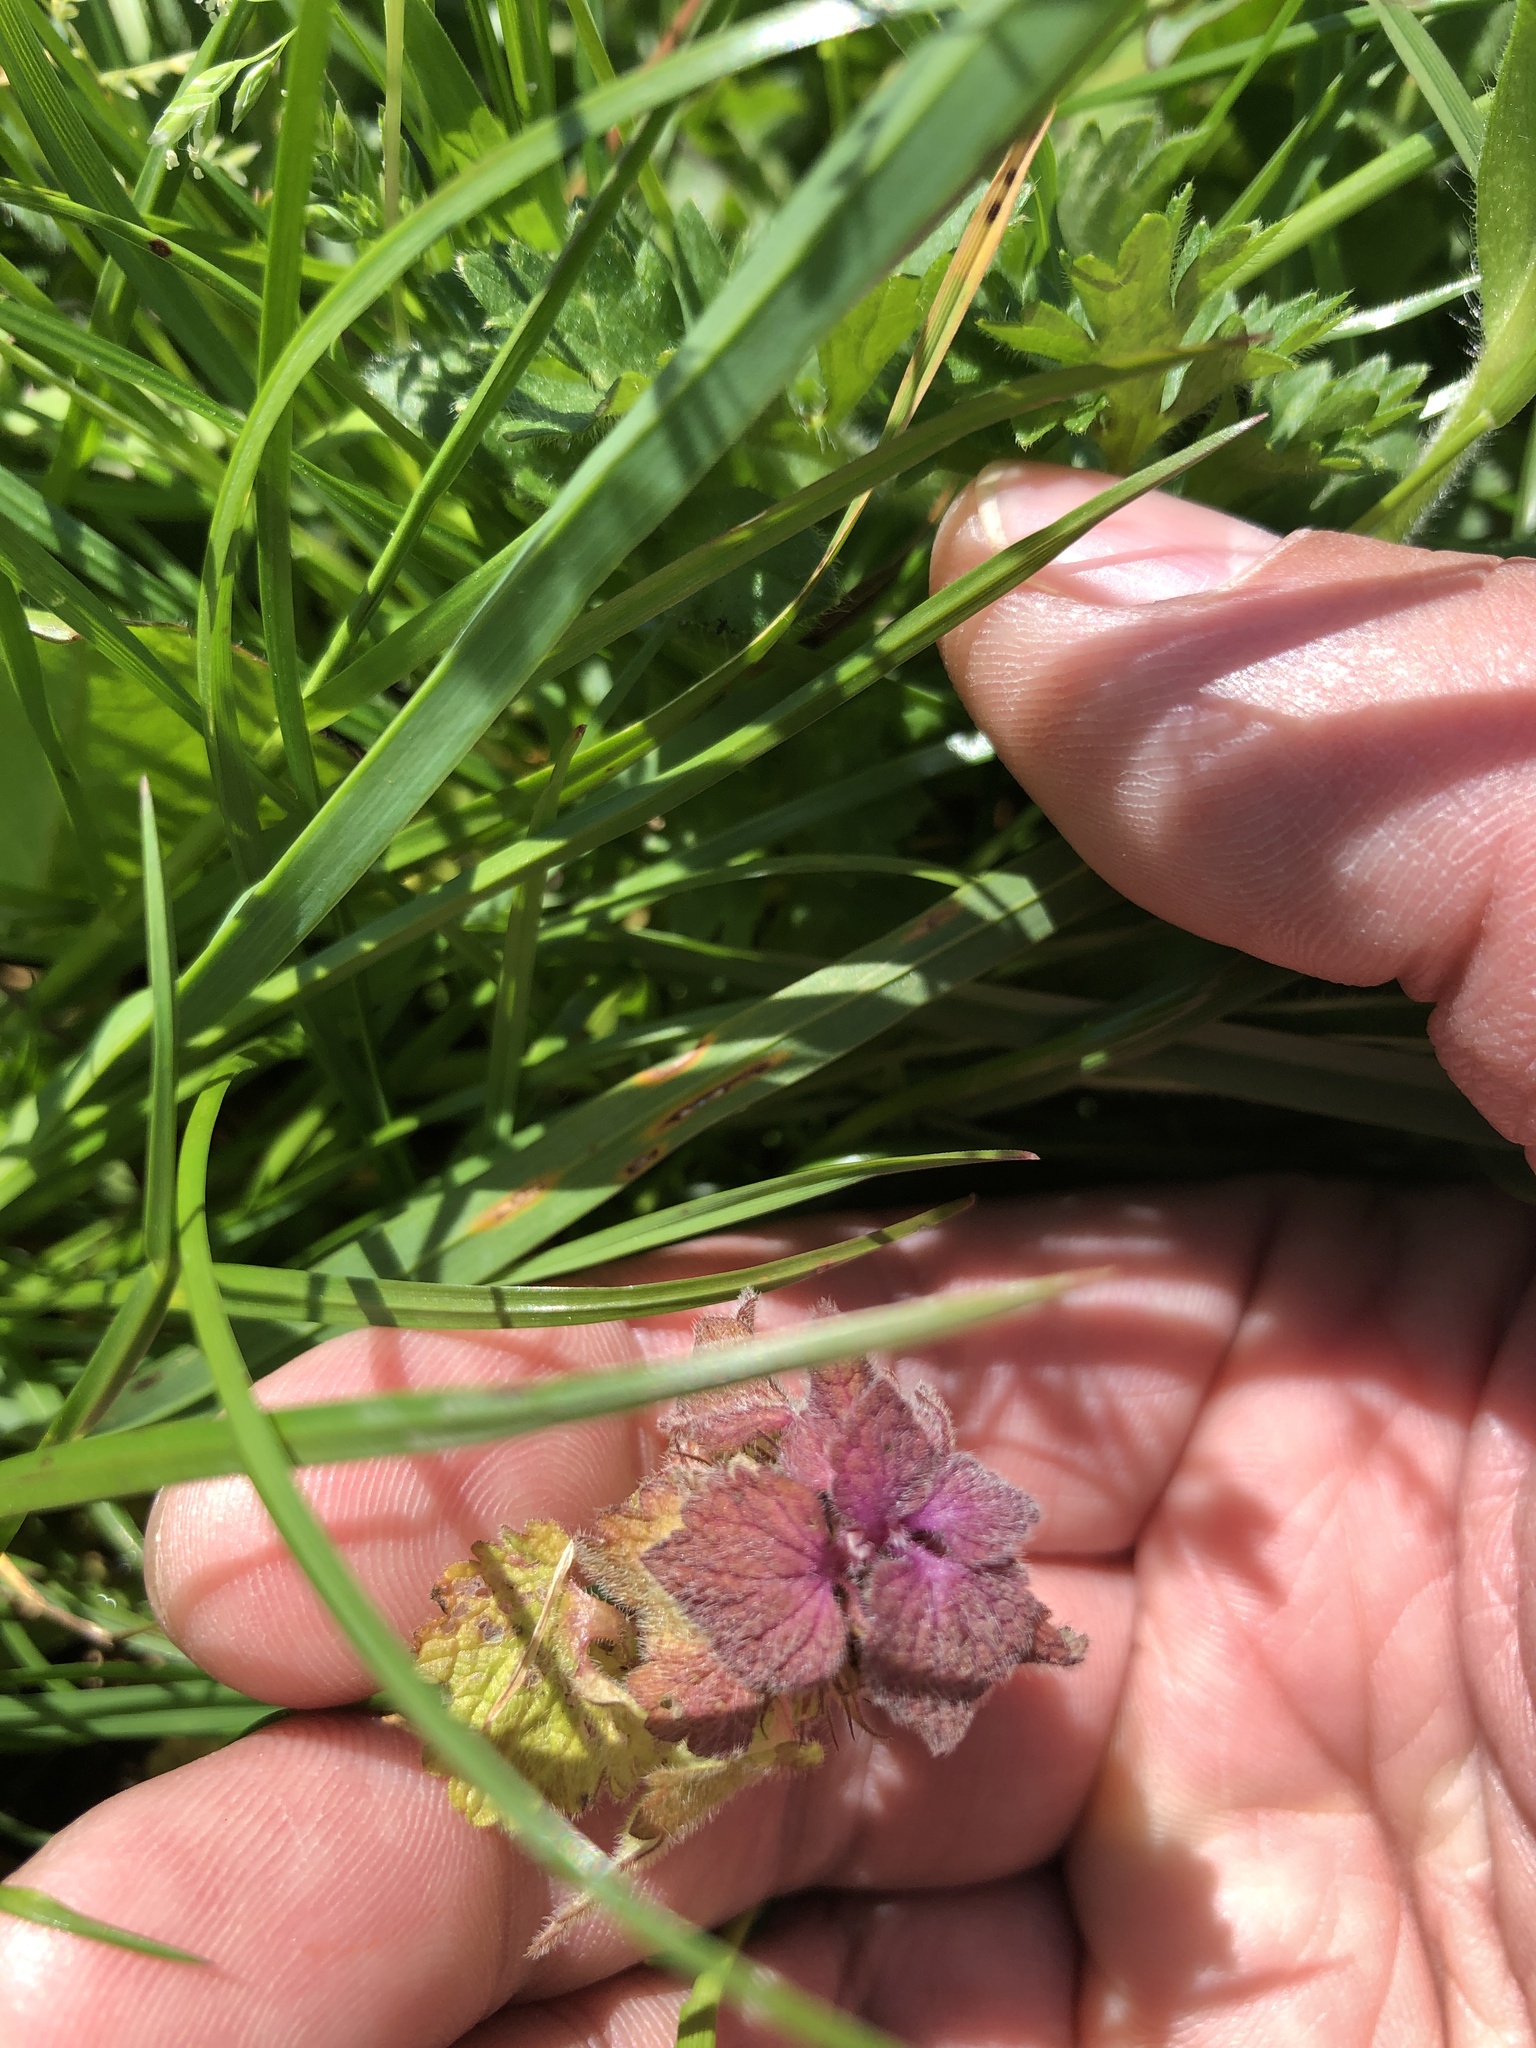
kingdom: Plantae
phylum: Tracheophyta
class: Magnoliopsida
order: Lamiales
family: Lamiaceae
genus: Lamium
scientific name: Lamium purpureum
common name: Red dead-nettle
